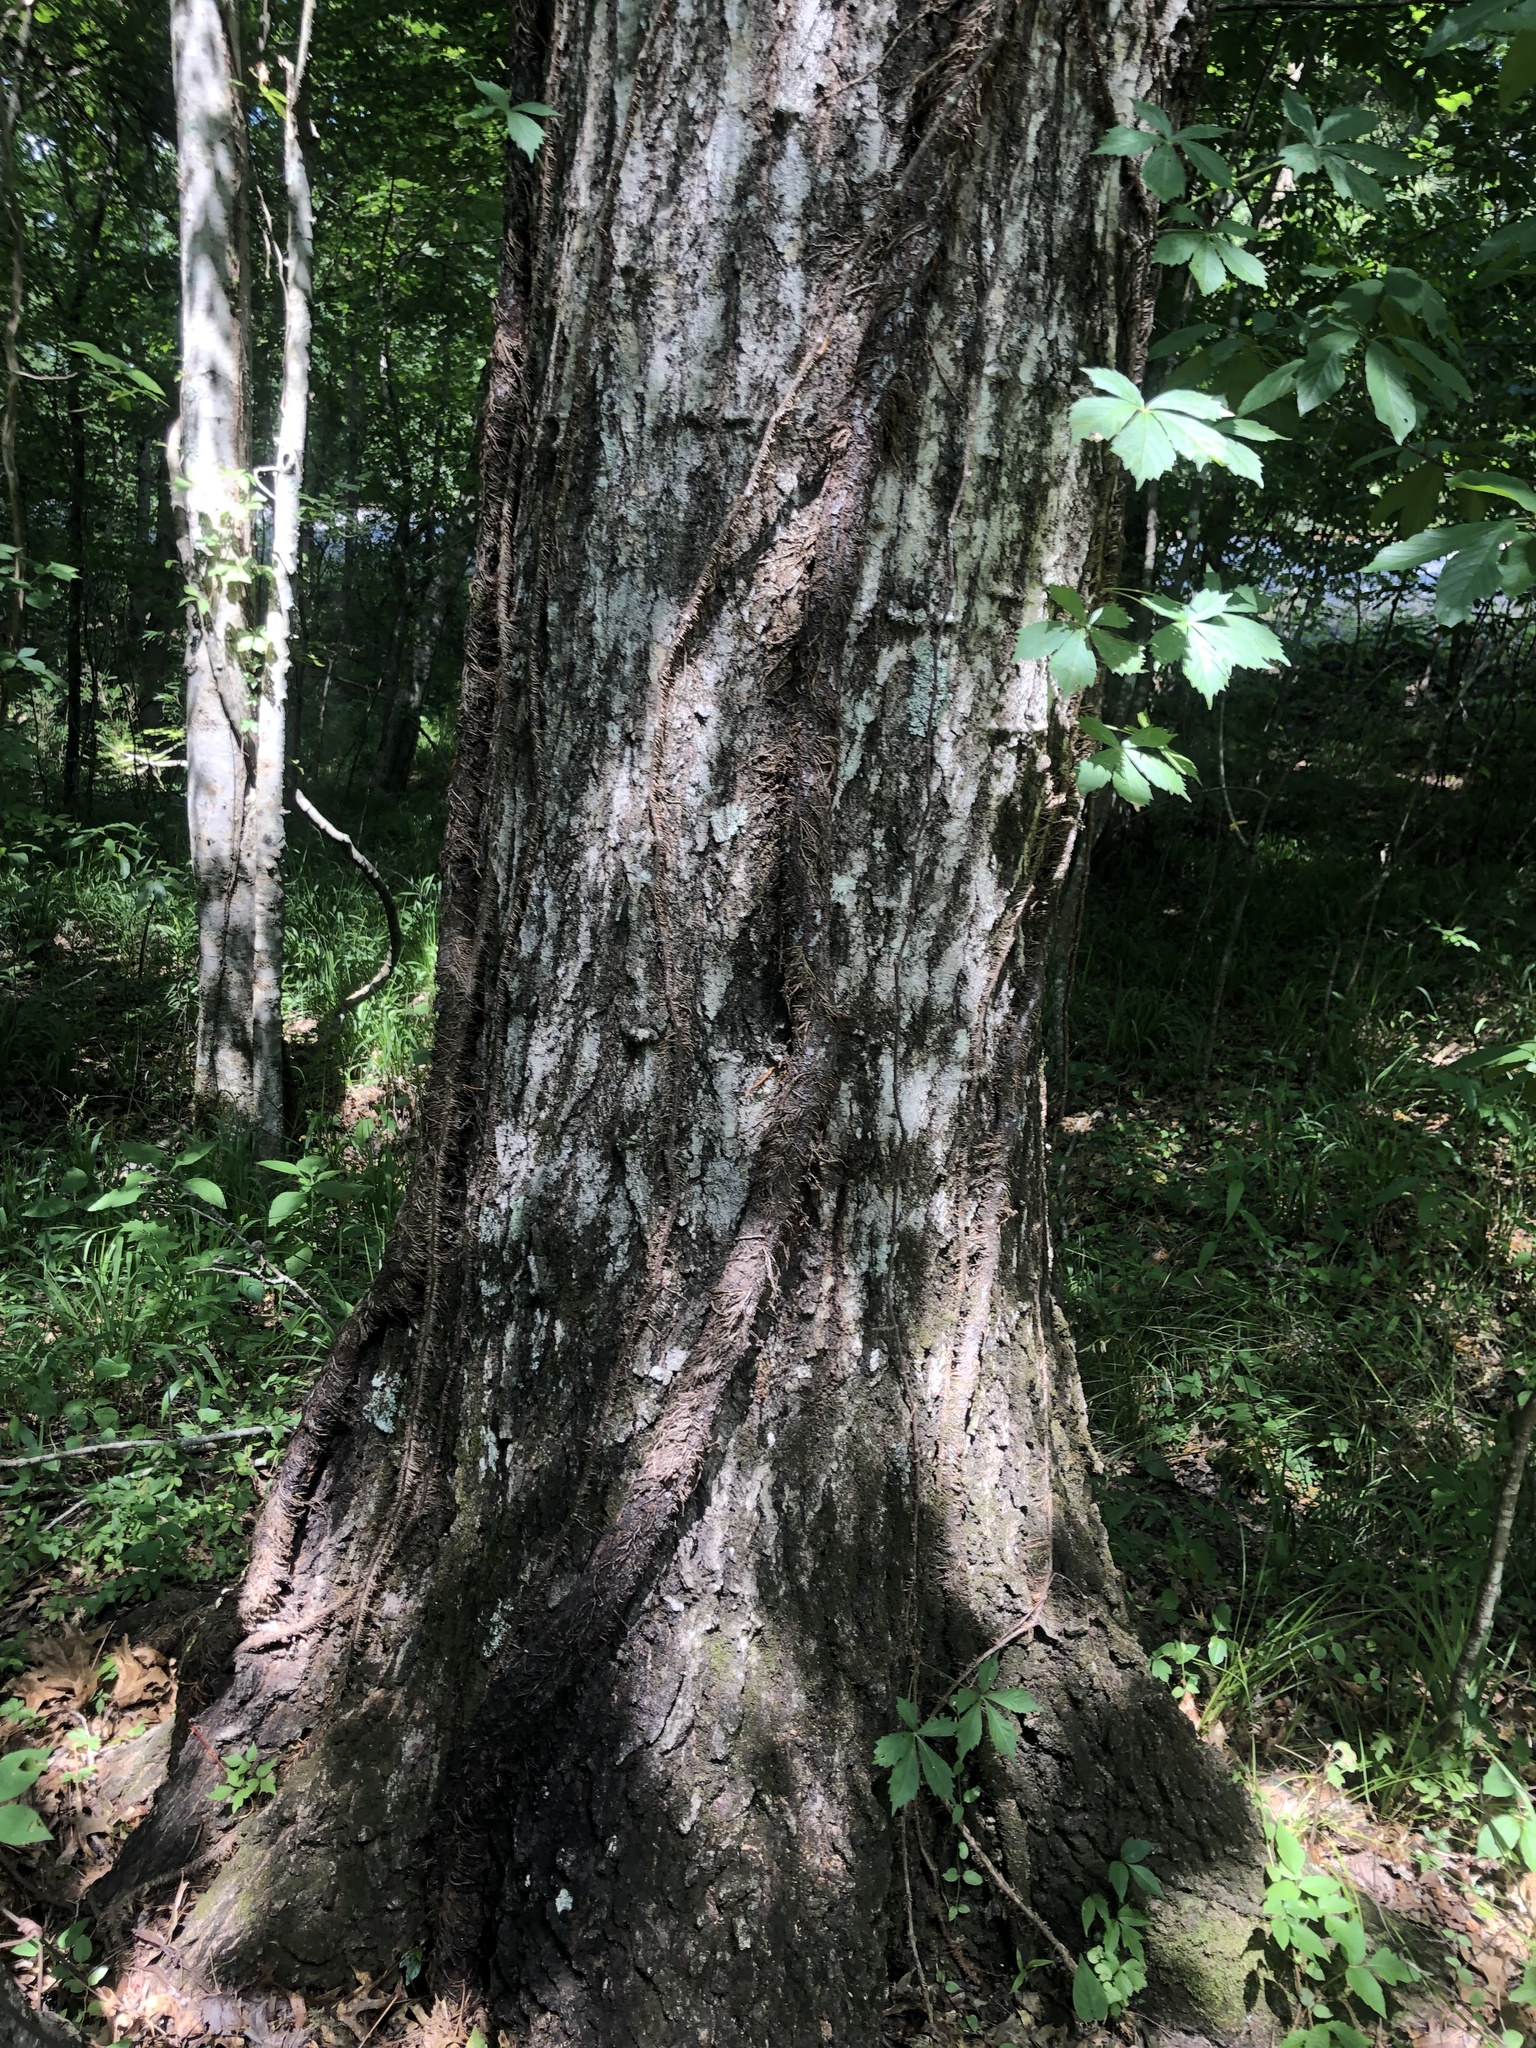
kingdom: Plantae
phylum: Tracheophyta
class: Magnoliopsida
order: Fagales
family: Fagaceae
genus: Quercus
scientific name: Quercus shumardii
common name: Shumard oak
